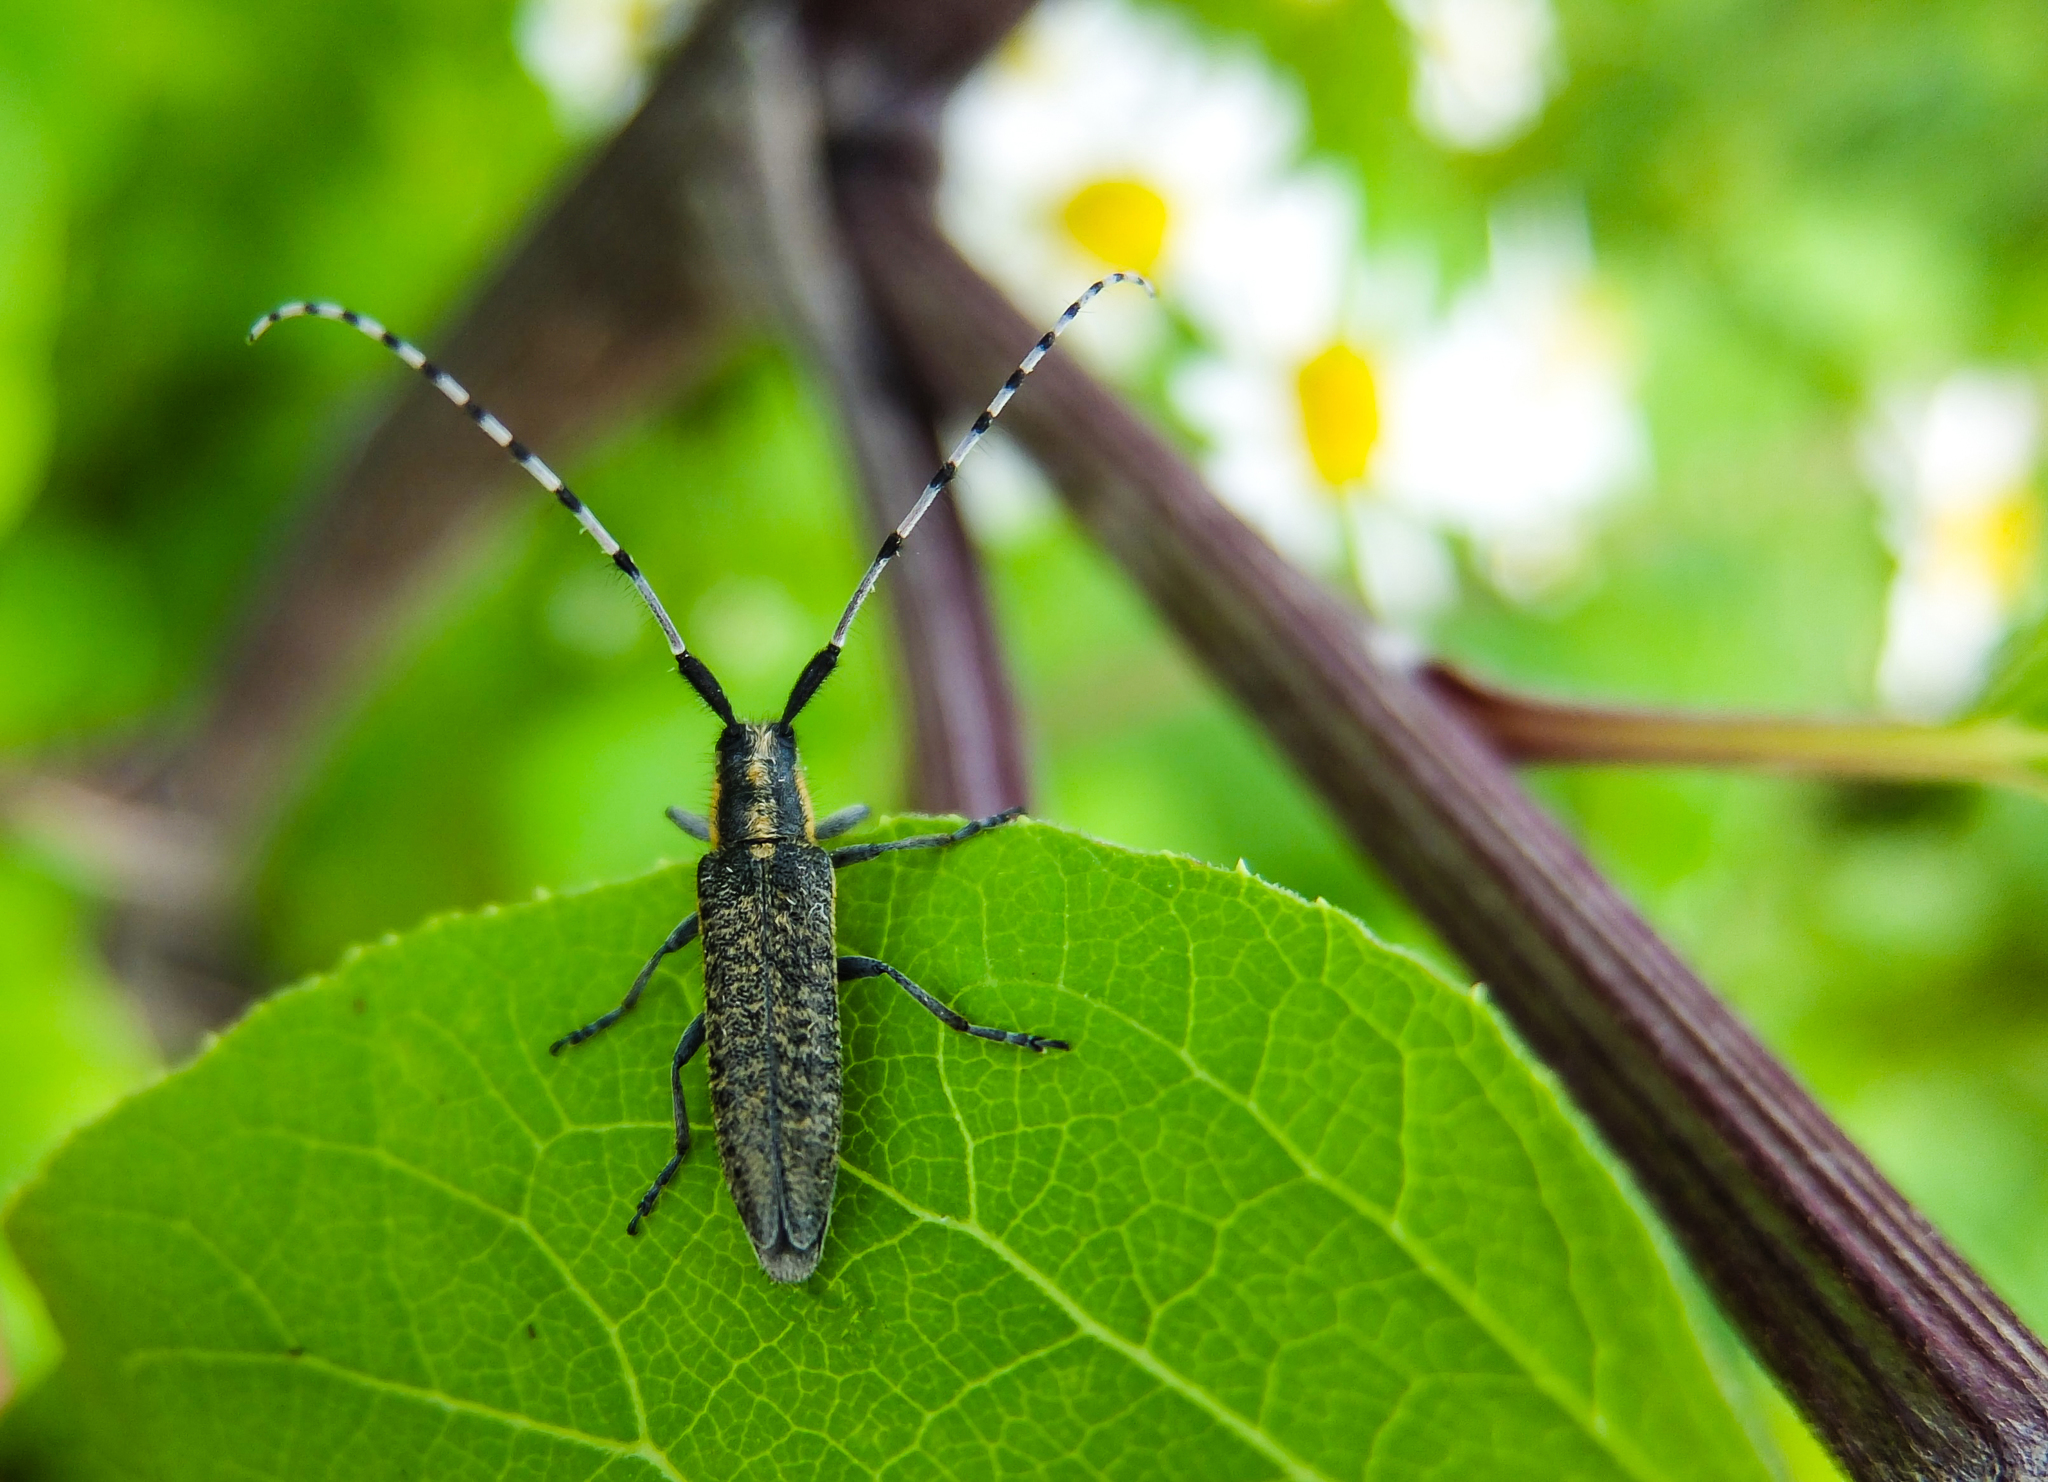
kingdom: Animalia
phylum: Arthropoda
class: Insecta
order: Coleoptera
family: Cerambycidae
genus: Agapanthia
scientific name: Agapanthia villosoviridescens
